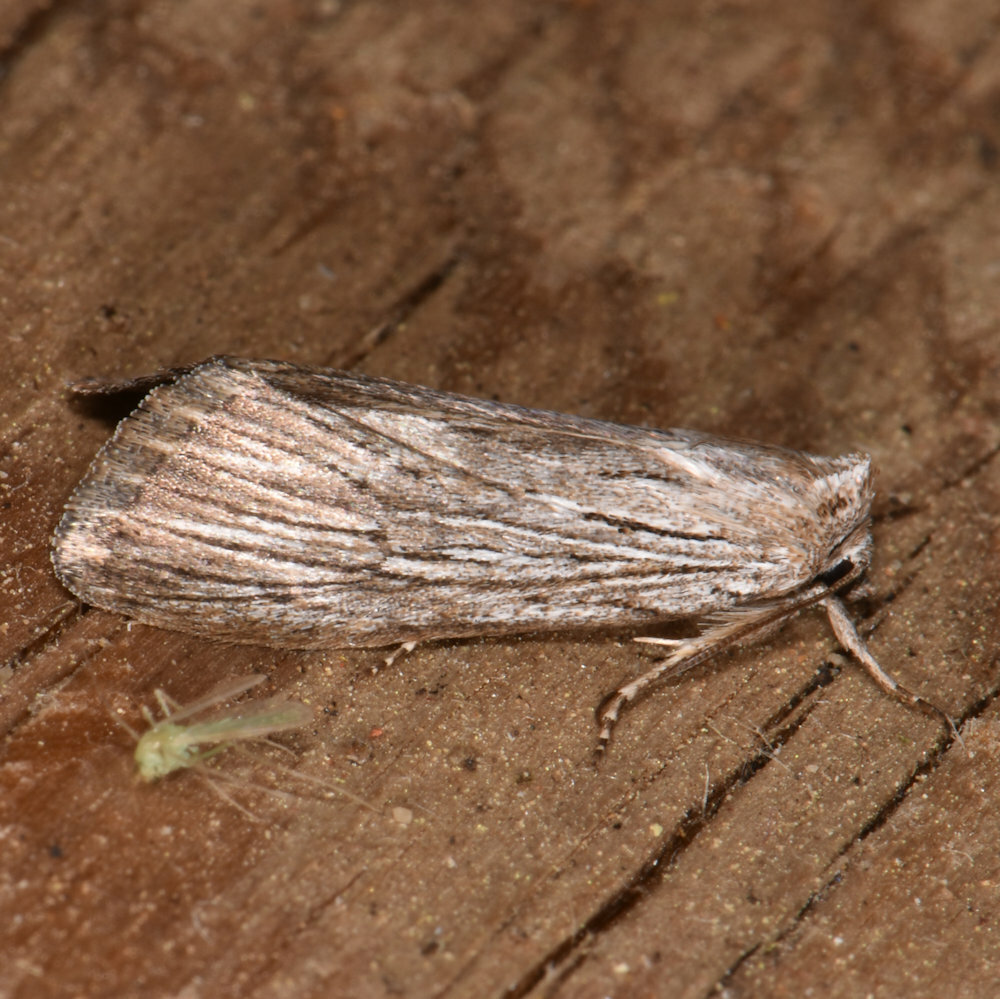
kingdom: Animalia
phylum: Arthropoda
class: Insecta
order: Lepidoptera
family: Noctuidae
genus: Cucullia
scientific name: Cucullia intermedia
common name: Goldenrod cutworm
